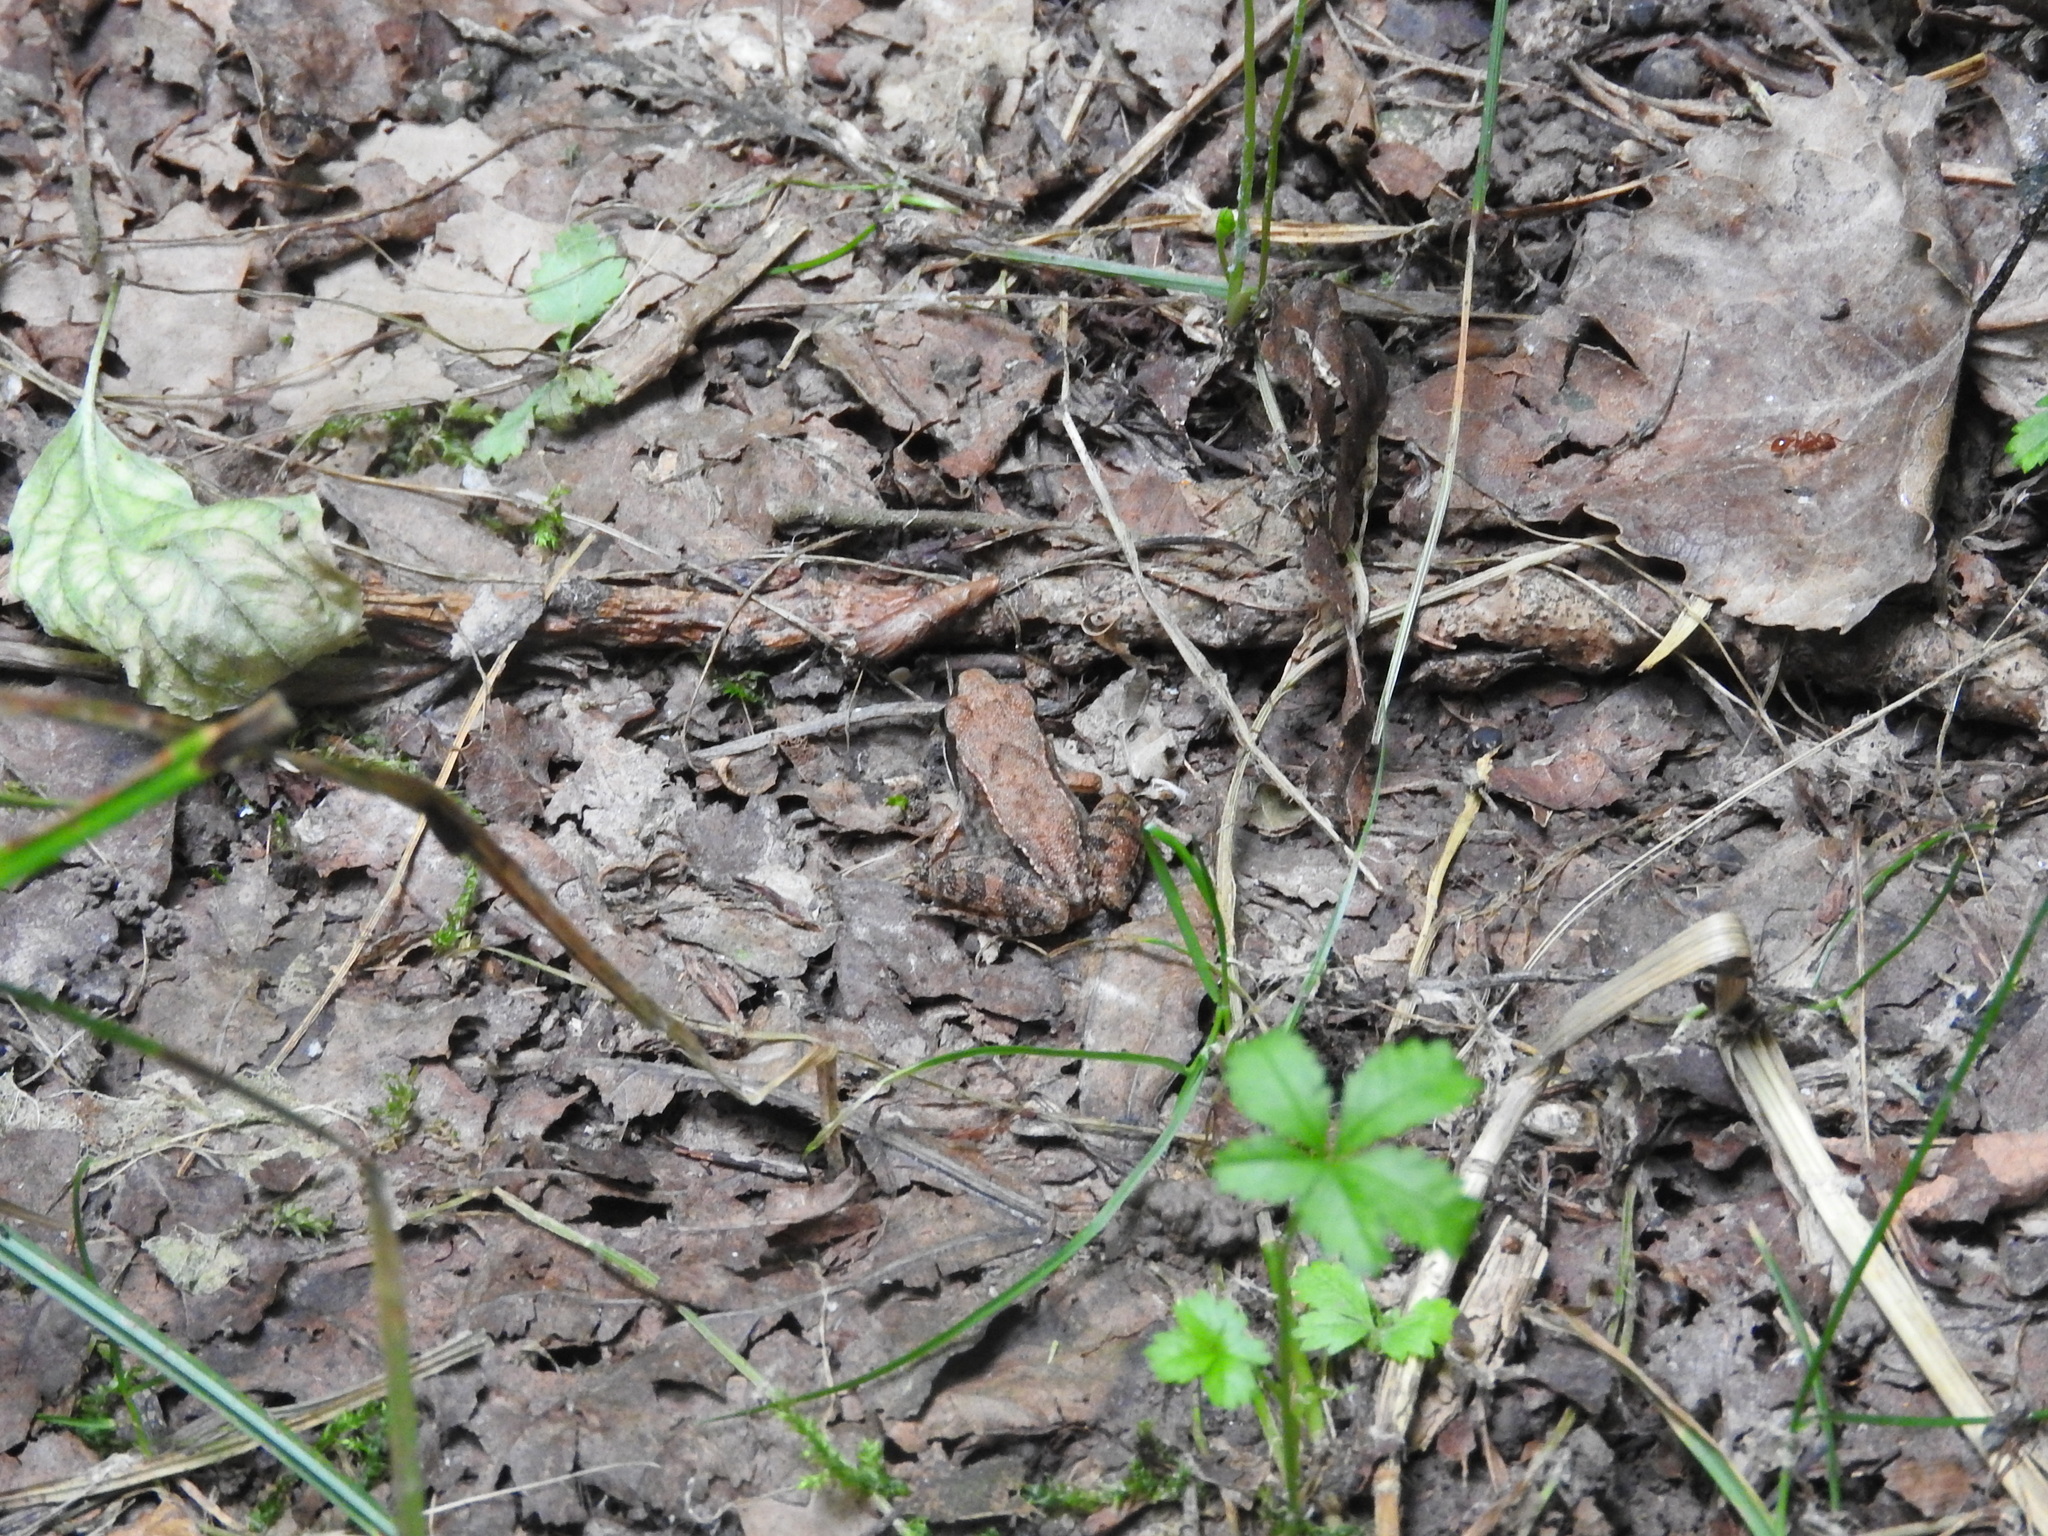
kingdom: Animalia
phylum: Chordata
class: Amphibia
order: Anura
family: Ranidae
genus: Rana
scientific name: Rana latastei
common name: Italian agile frog
